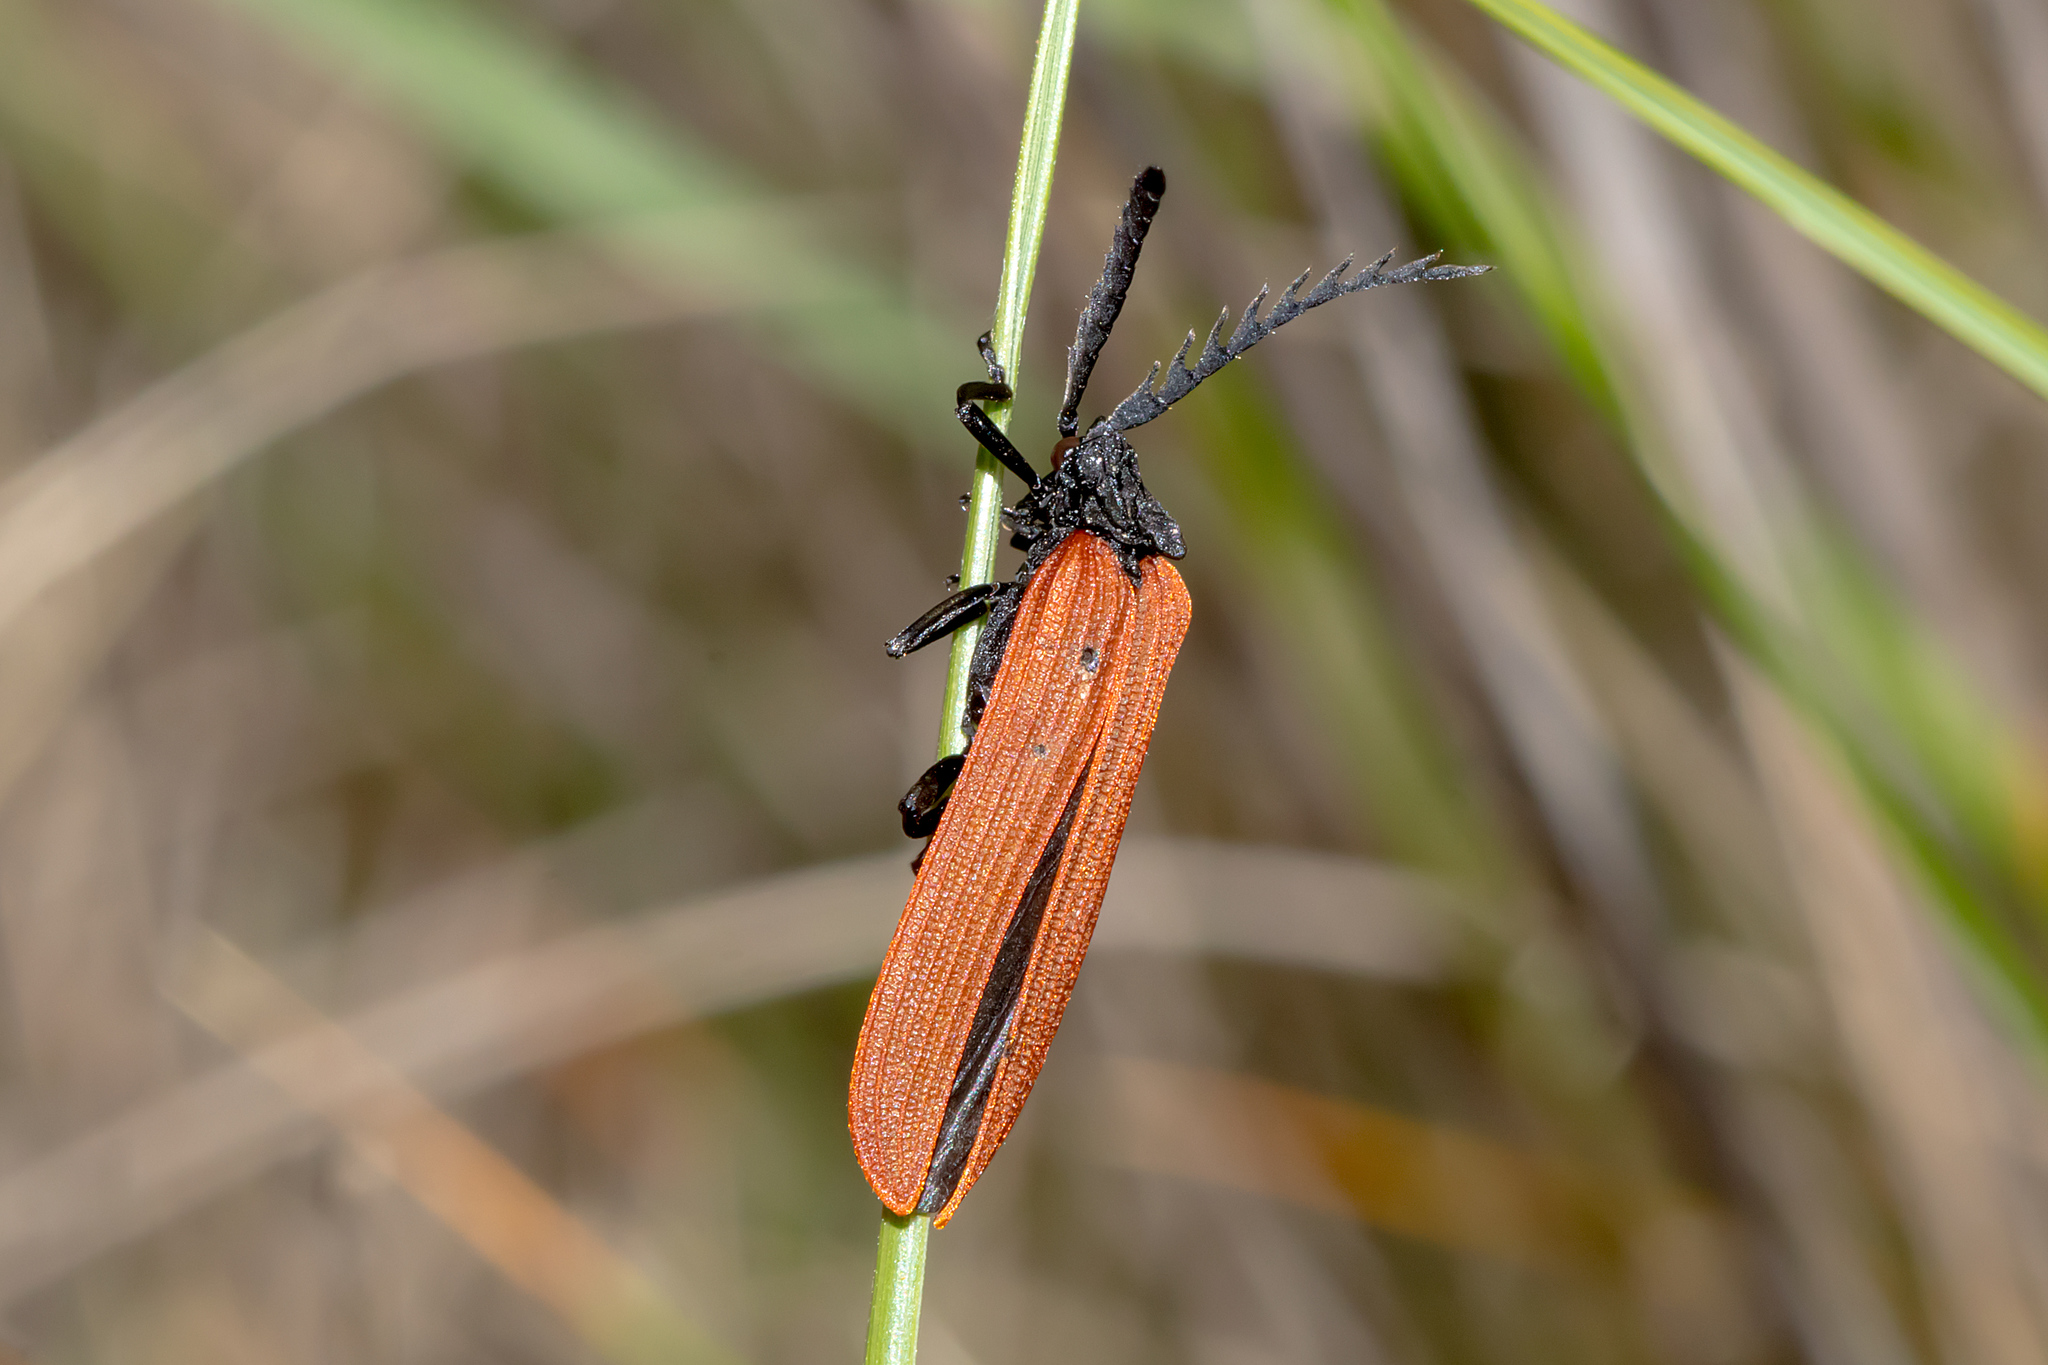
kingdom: Animalia
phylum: Arthropoda
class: Insecta
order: Coleoptera
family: Lycidae
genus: Porrostoma
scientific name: Porrostoma rhipidium
